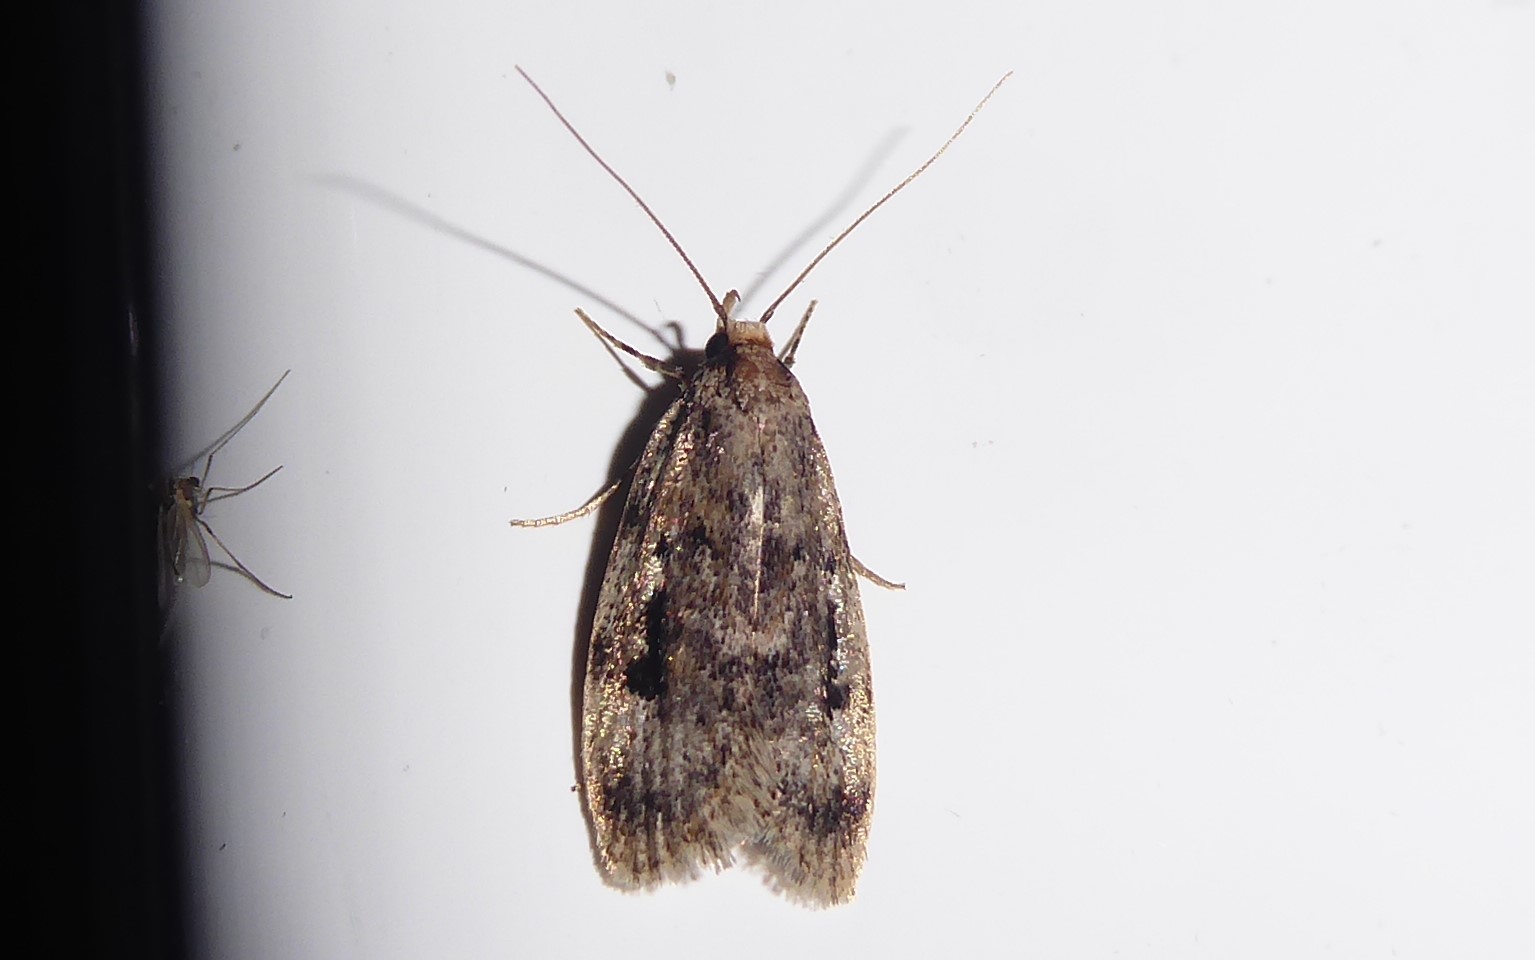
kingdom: Animalia
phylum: Arthropoda
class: Insecta
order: Lepidoptera
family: Oecophoridae
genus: Barea
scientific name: Barea exarcha
